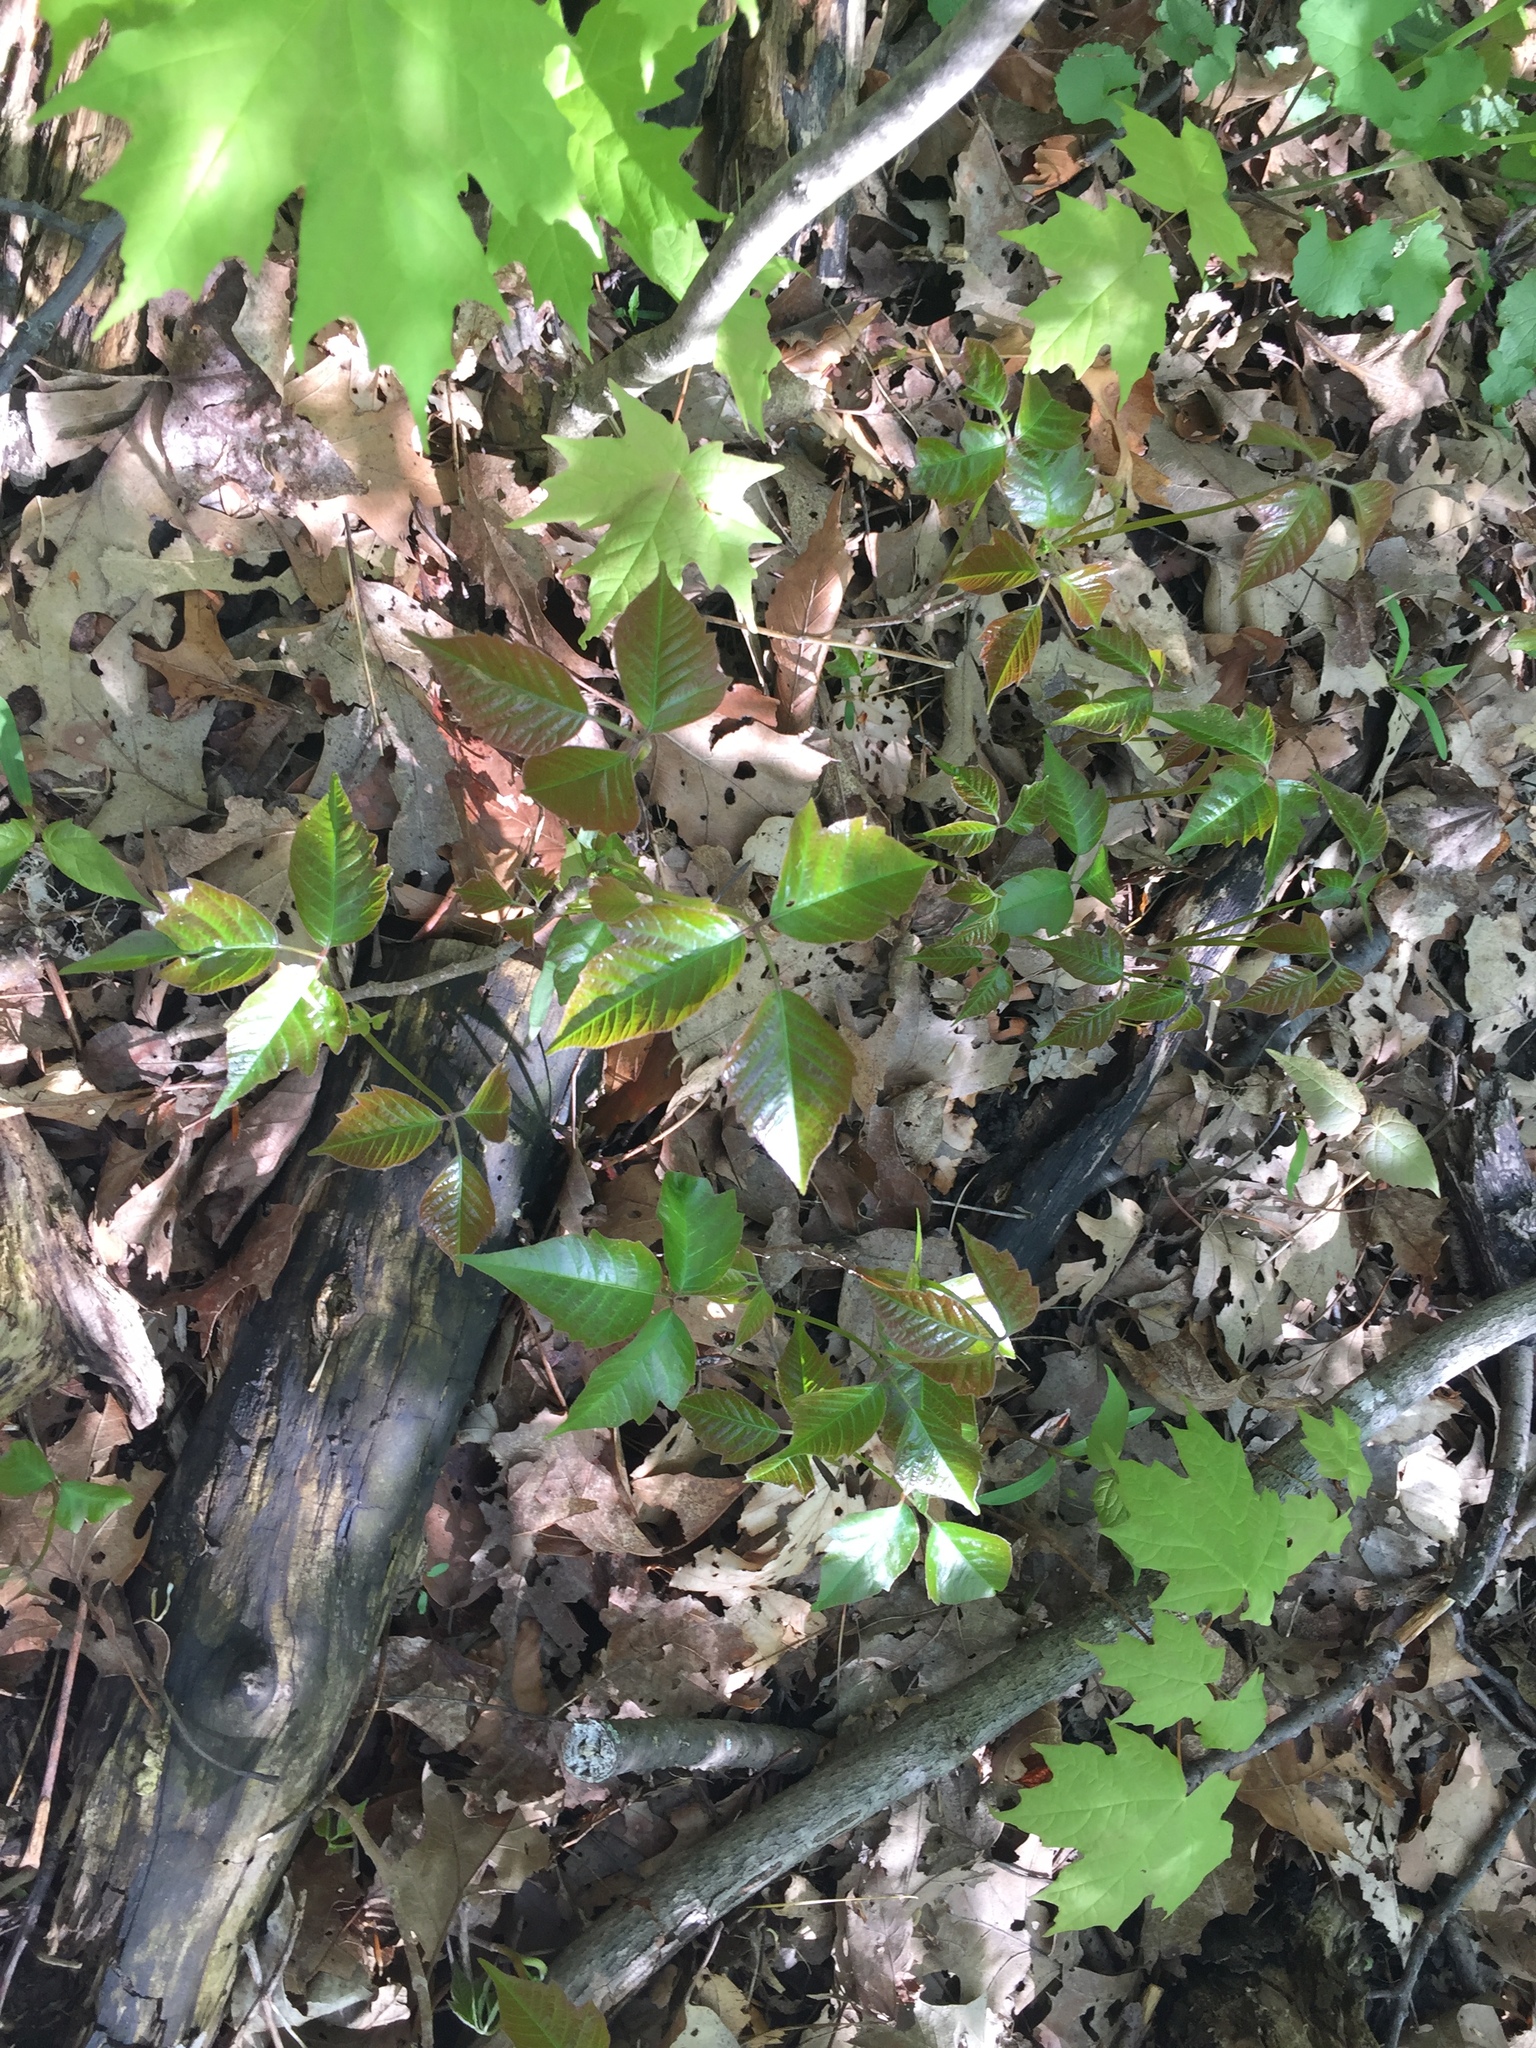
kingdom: Plantae
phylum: Tracheophyta
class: Magnoliopsida
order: Sapindales
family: Anacardiaceae
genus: Toxicodendron
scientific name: Toxicodendron rydbergii
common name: Rydberg's poison-ivy
